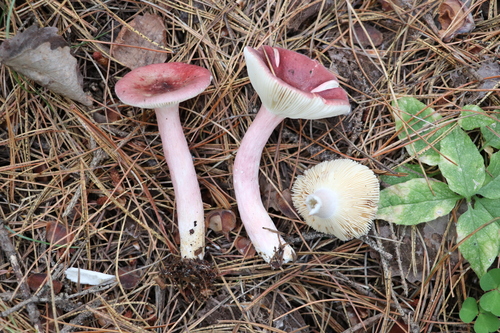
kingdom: Fungi
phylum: Basidiomycota
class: Agaricomycetes
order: Russulales
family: Russulaceae
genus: Russula
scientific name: Russula queletii
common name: Fruity brittlegill
